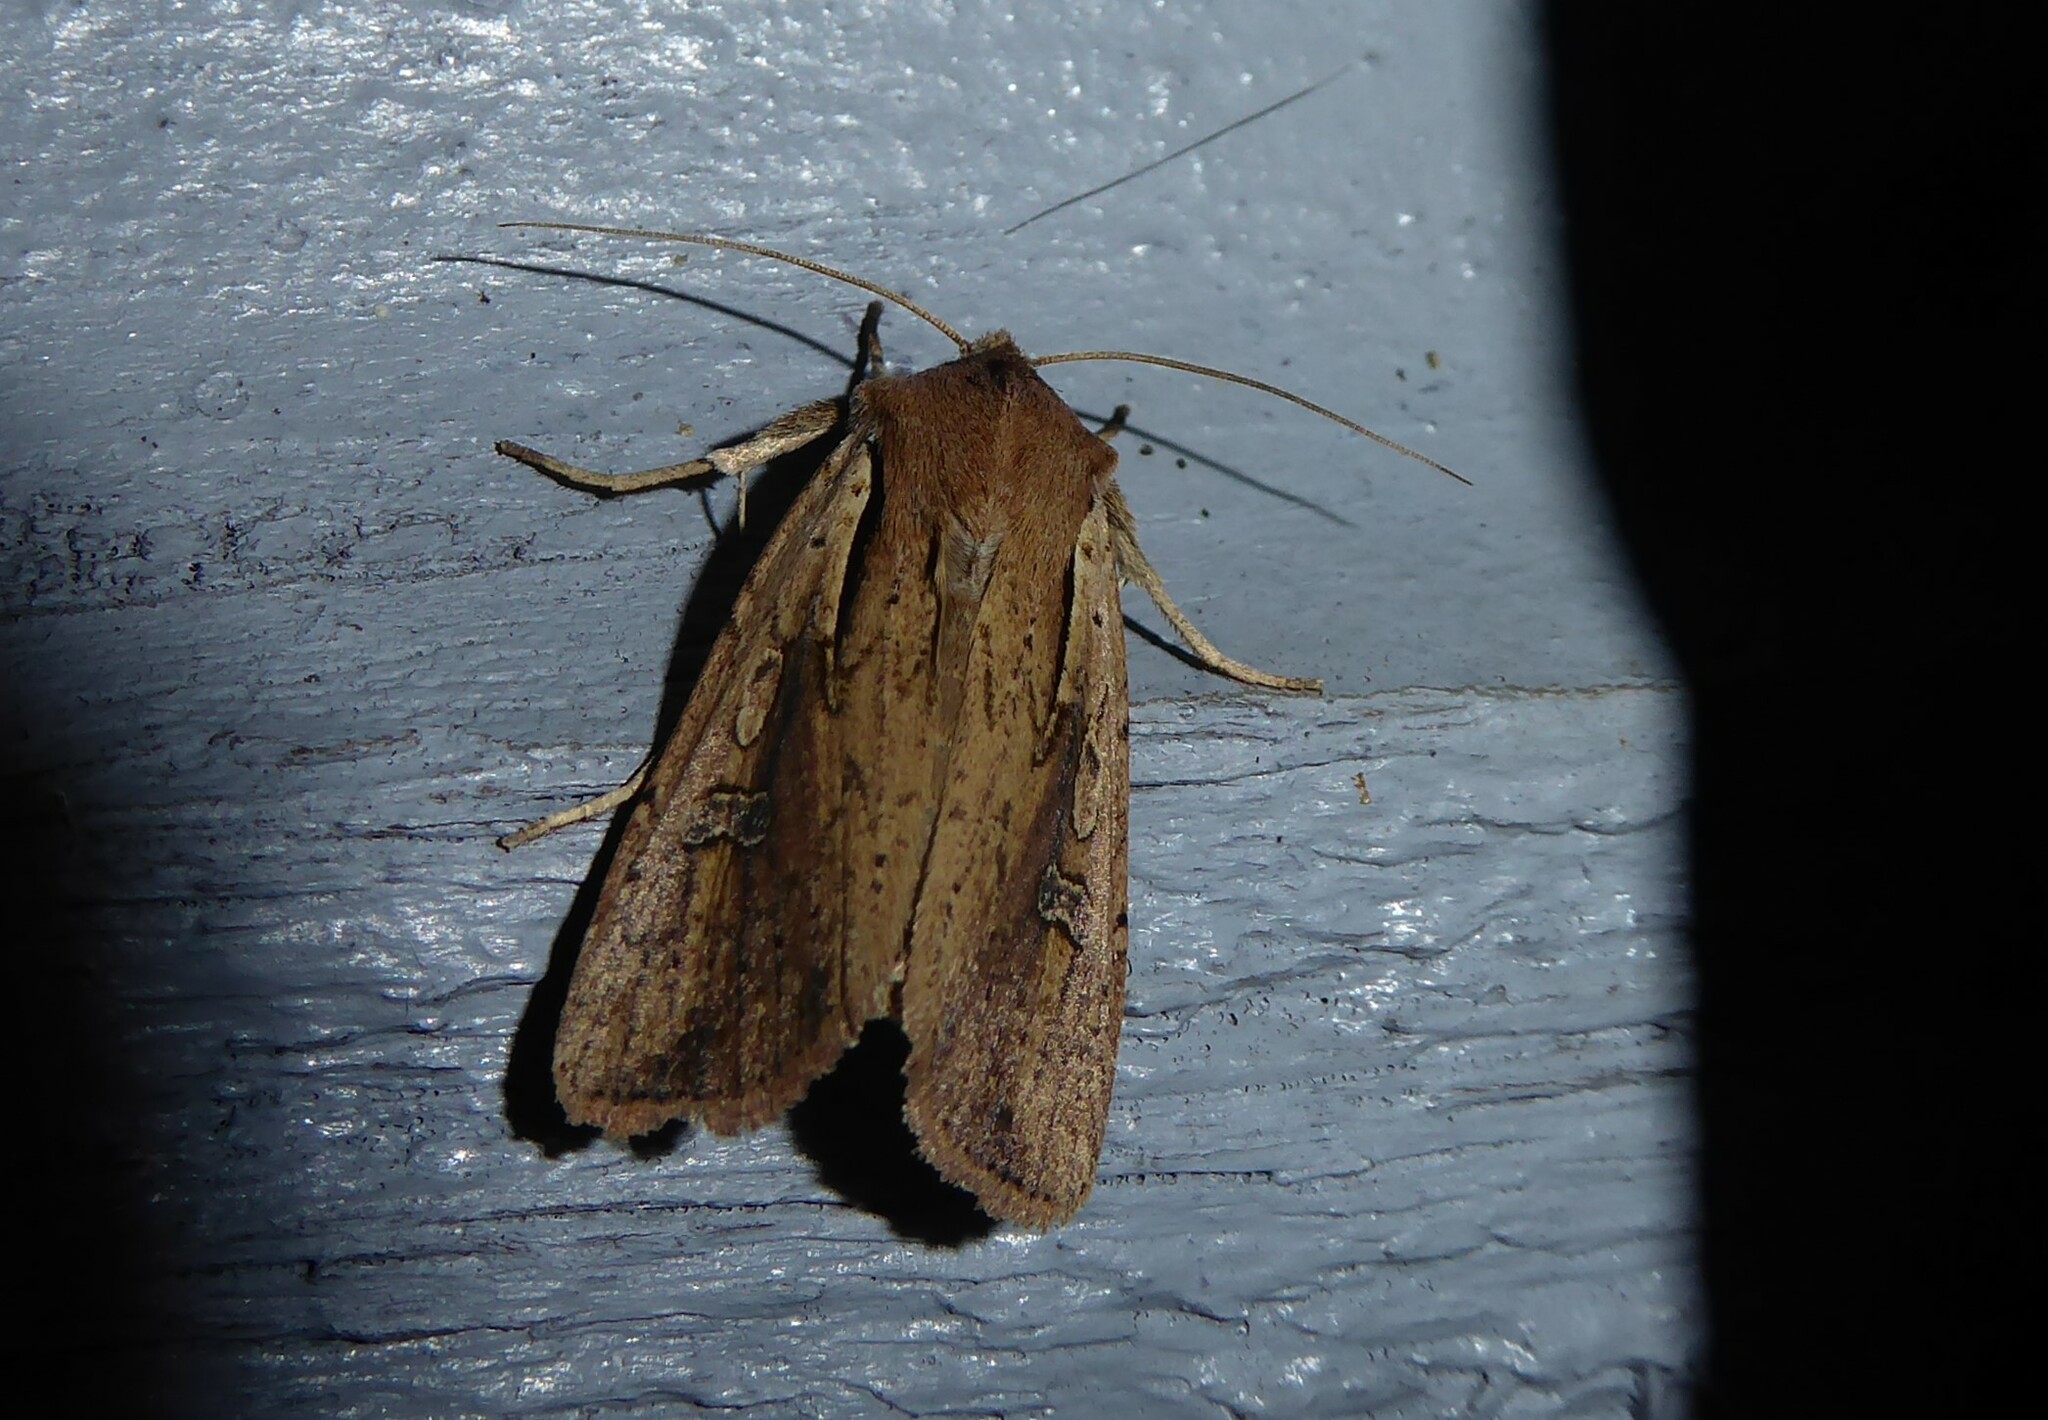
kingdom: Animalia
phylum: Arthropoda
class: Insecta
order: Lepidoptera
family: Noctuidae
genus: Ichneutica
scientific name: Ichneutica atristriga
